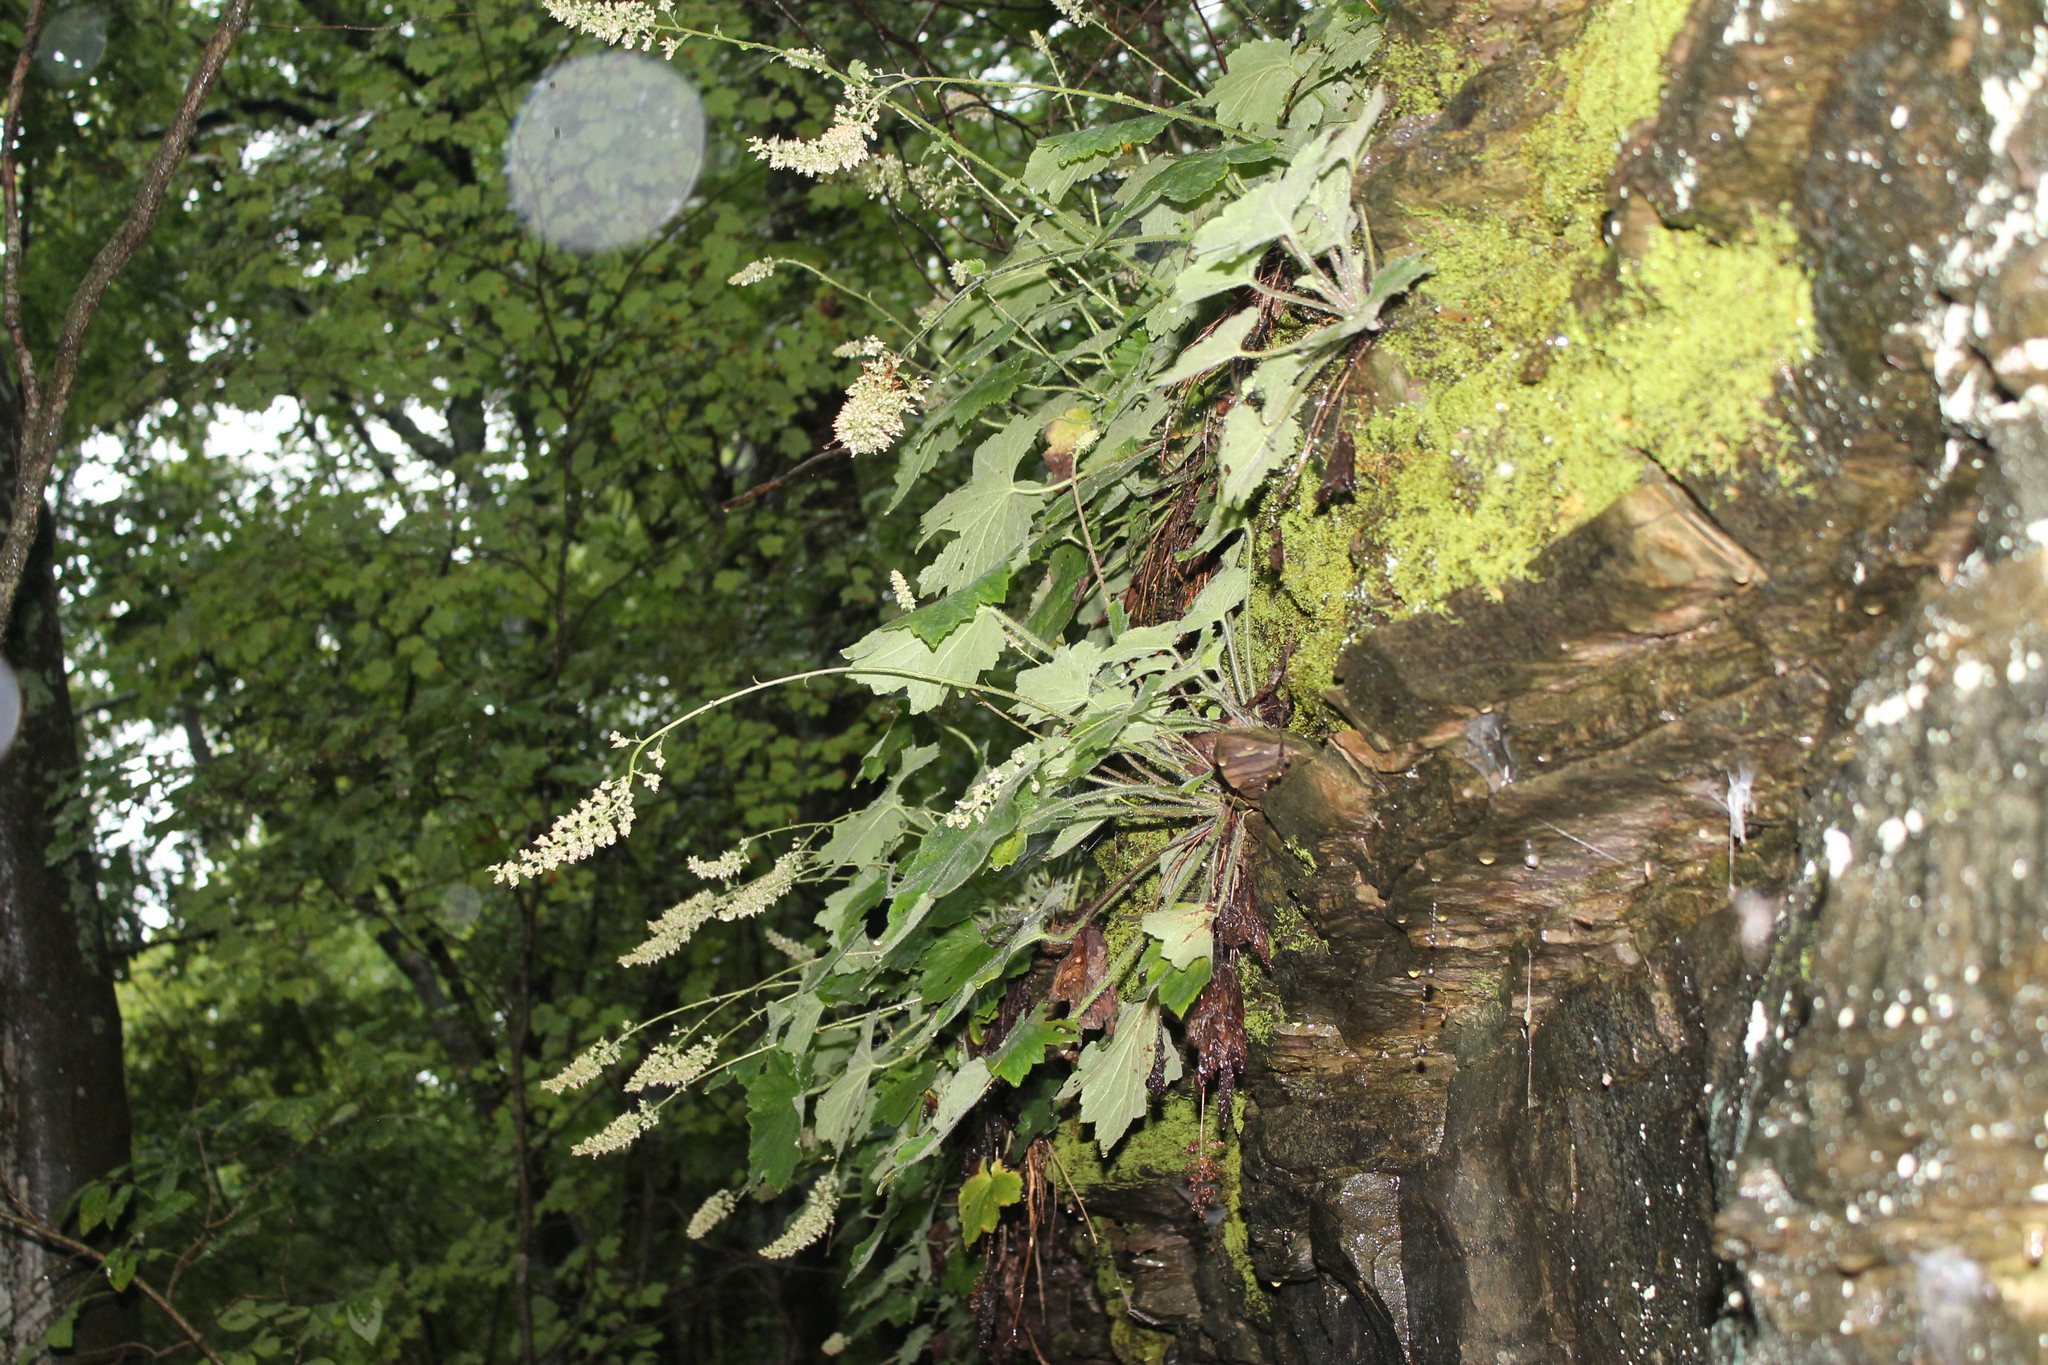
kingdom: Plantae
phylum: Tracheophyta
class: Magnoliopsida
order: Saxifragales
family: Saxifragaceae
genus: Heuchera
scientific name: Heuchera villosa
